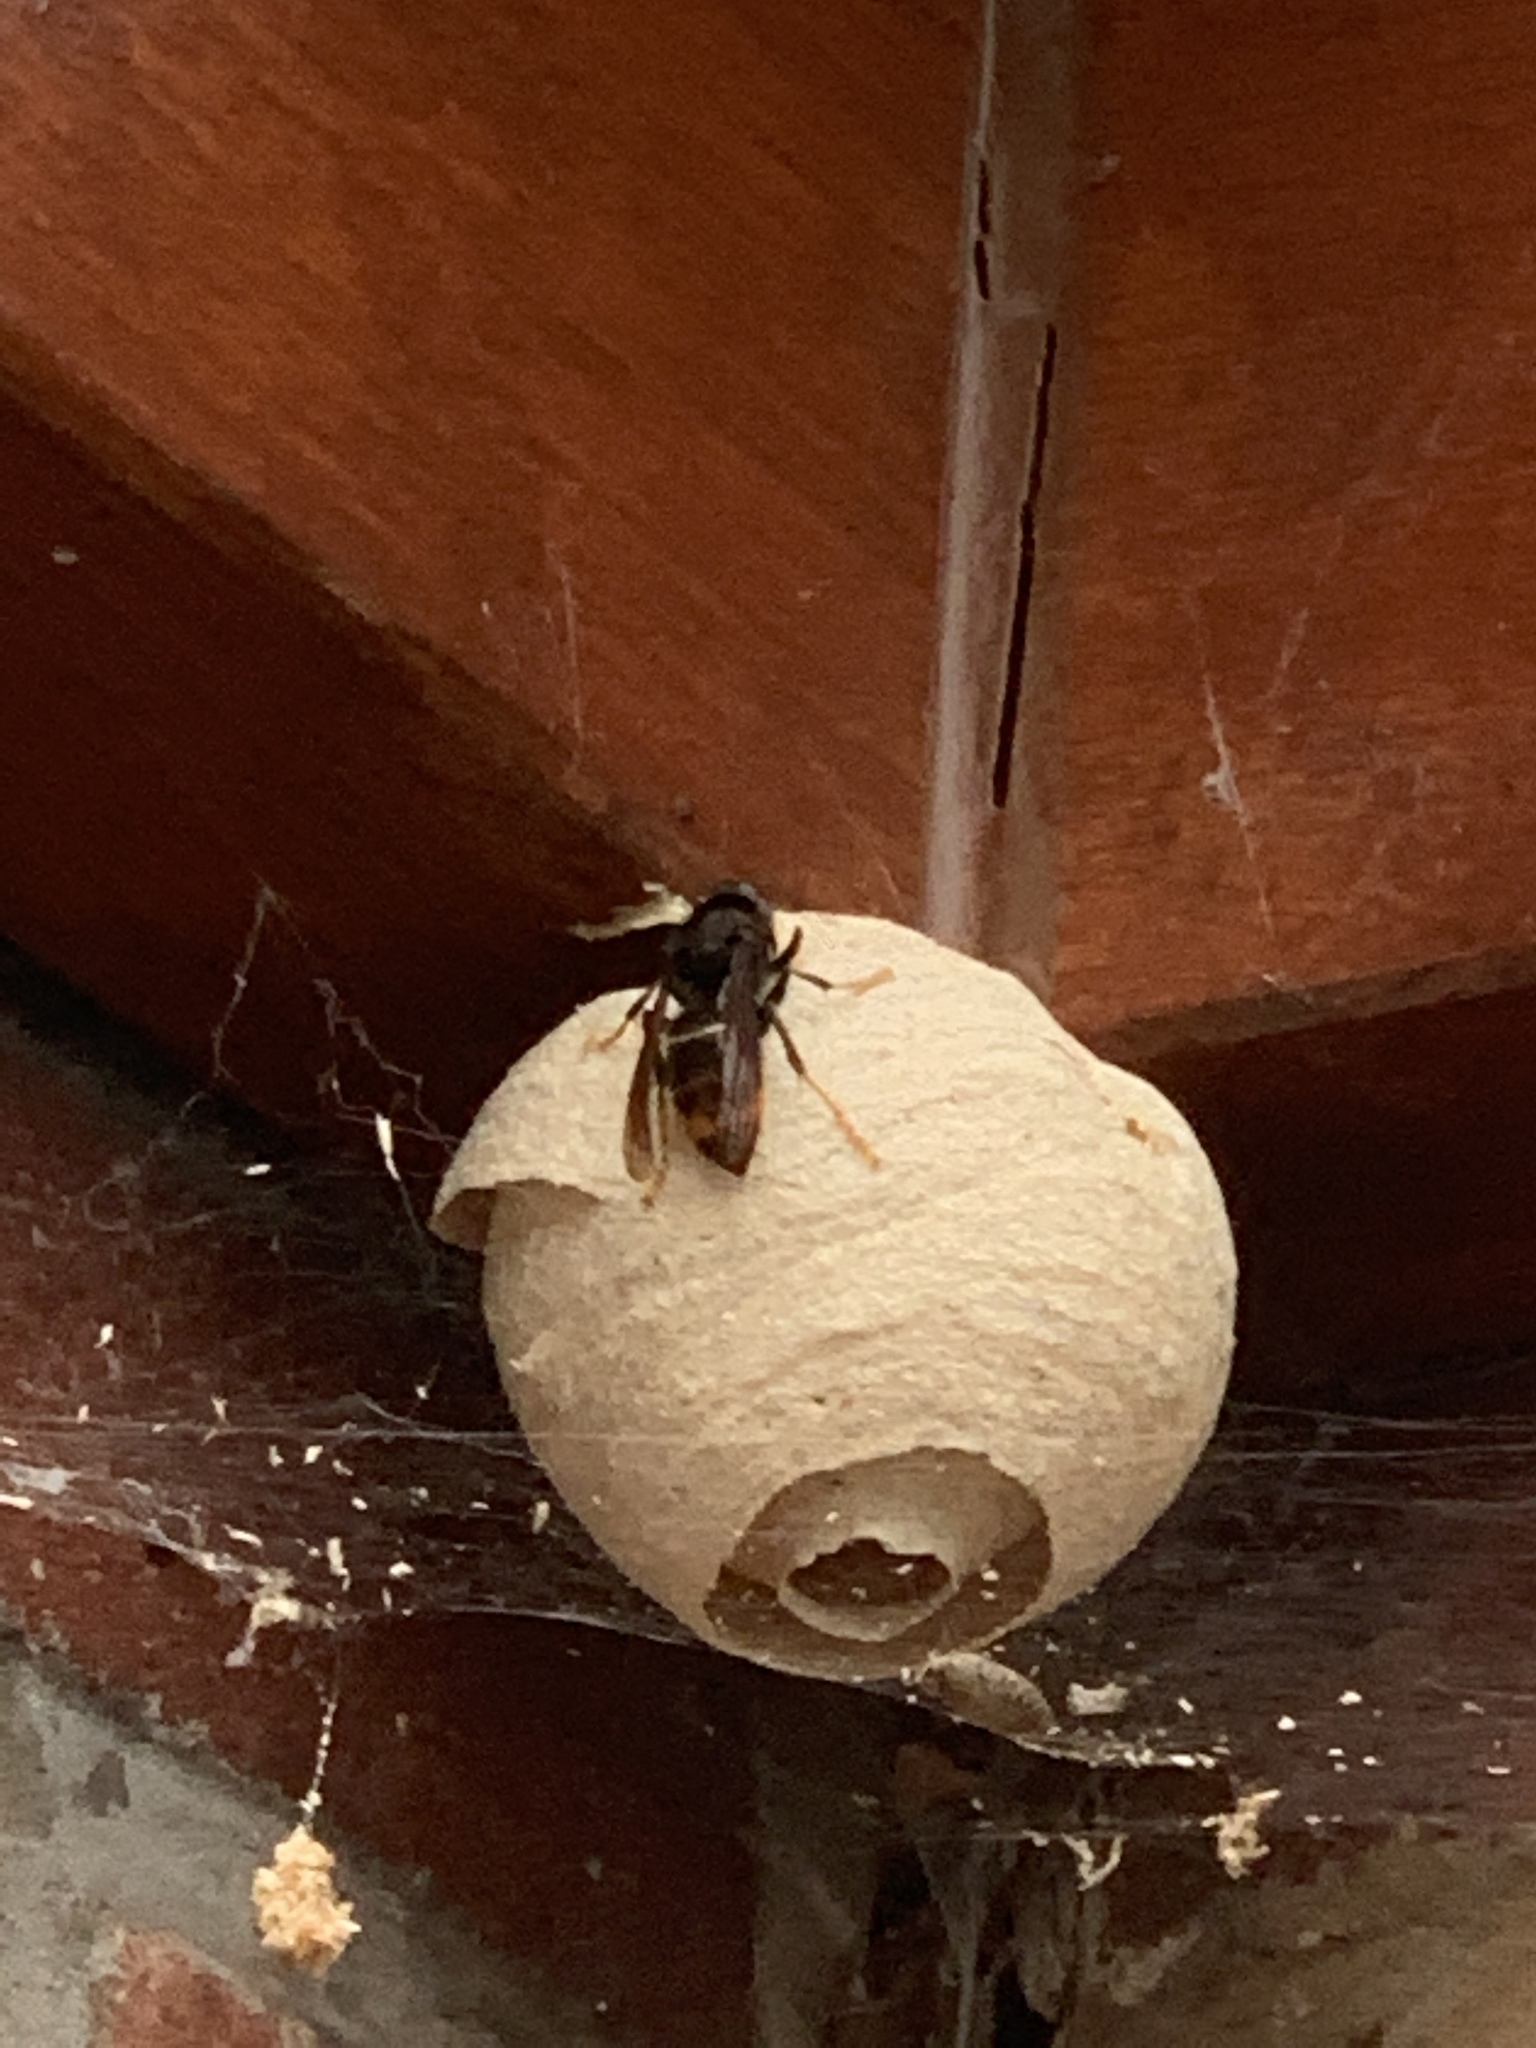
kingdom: Animalia
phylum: Arthropoda
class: Insecta
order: Hymenoptera
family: Vespidae
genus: Vespa
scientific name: Vespa velutina
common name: Asian hornet
